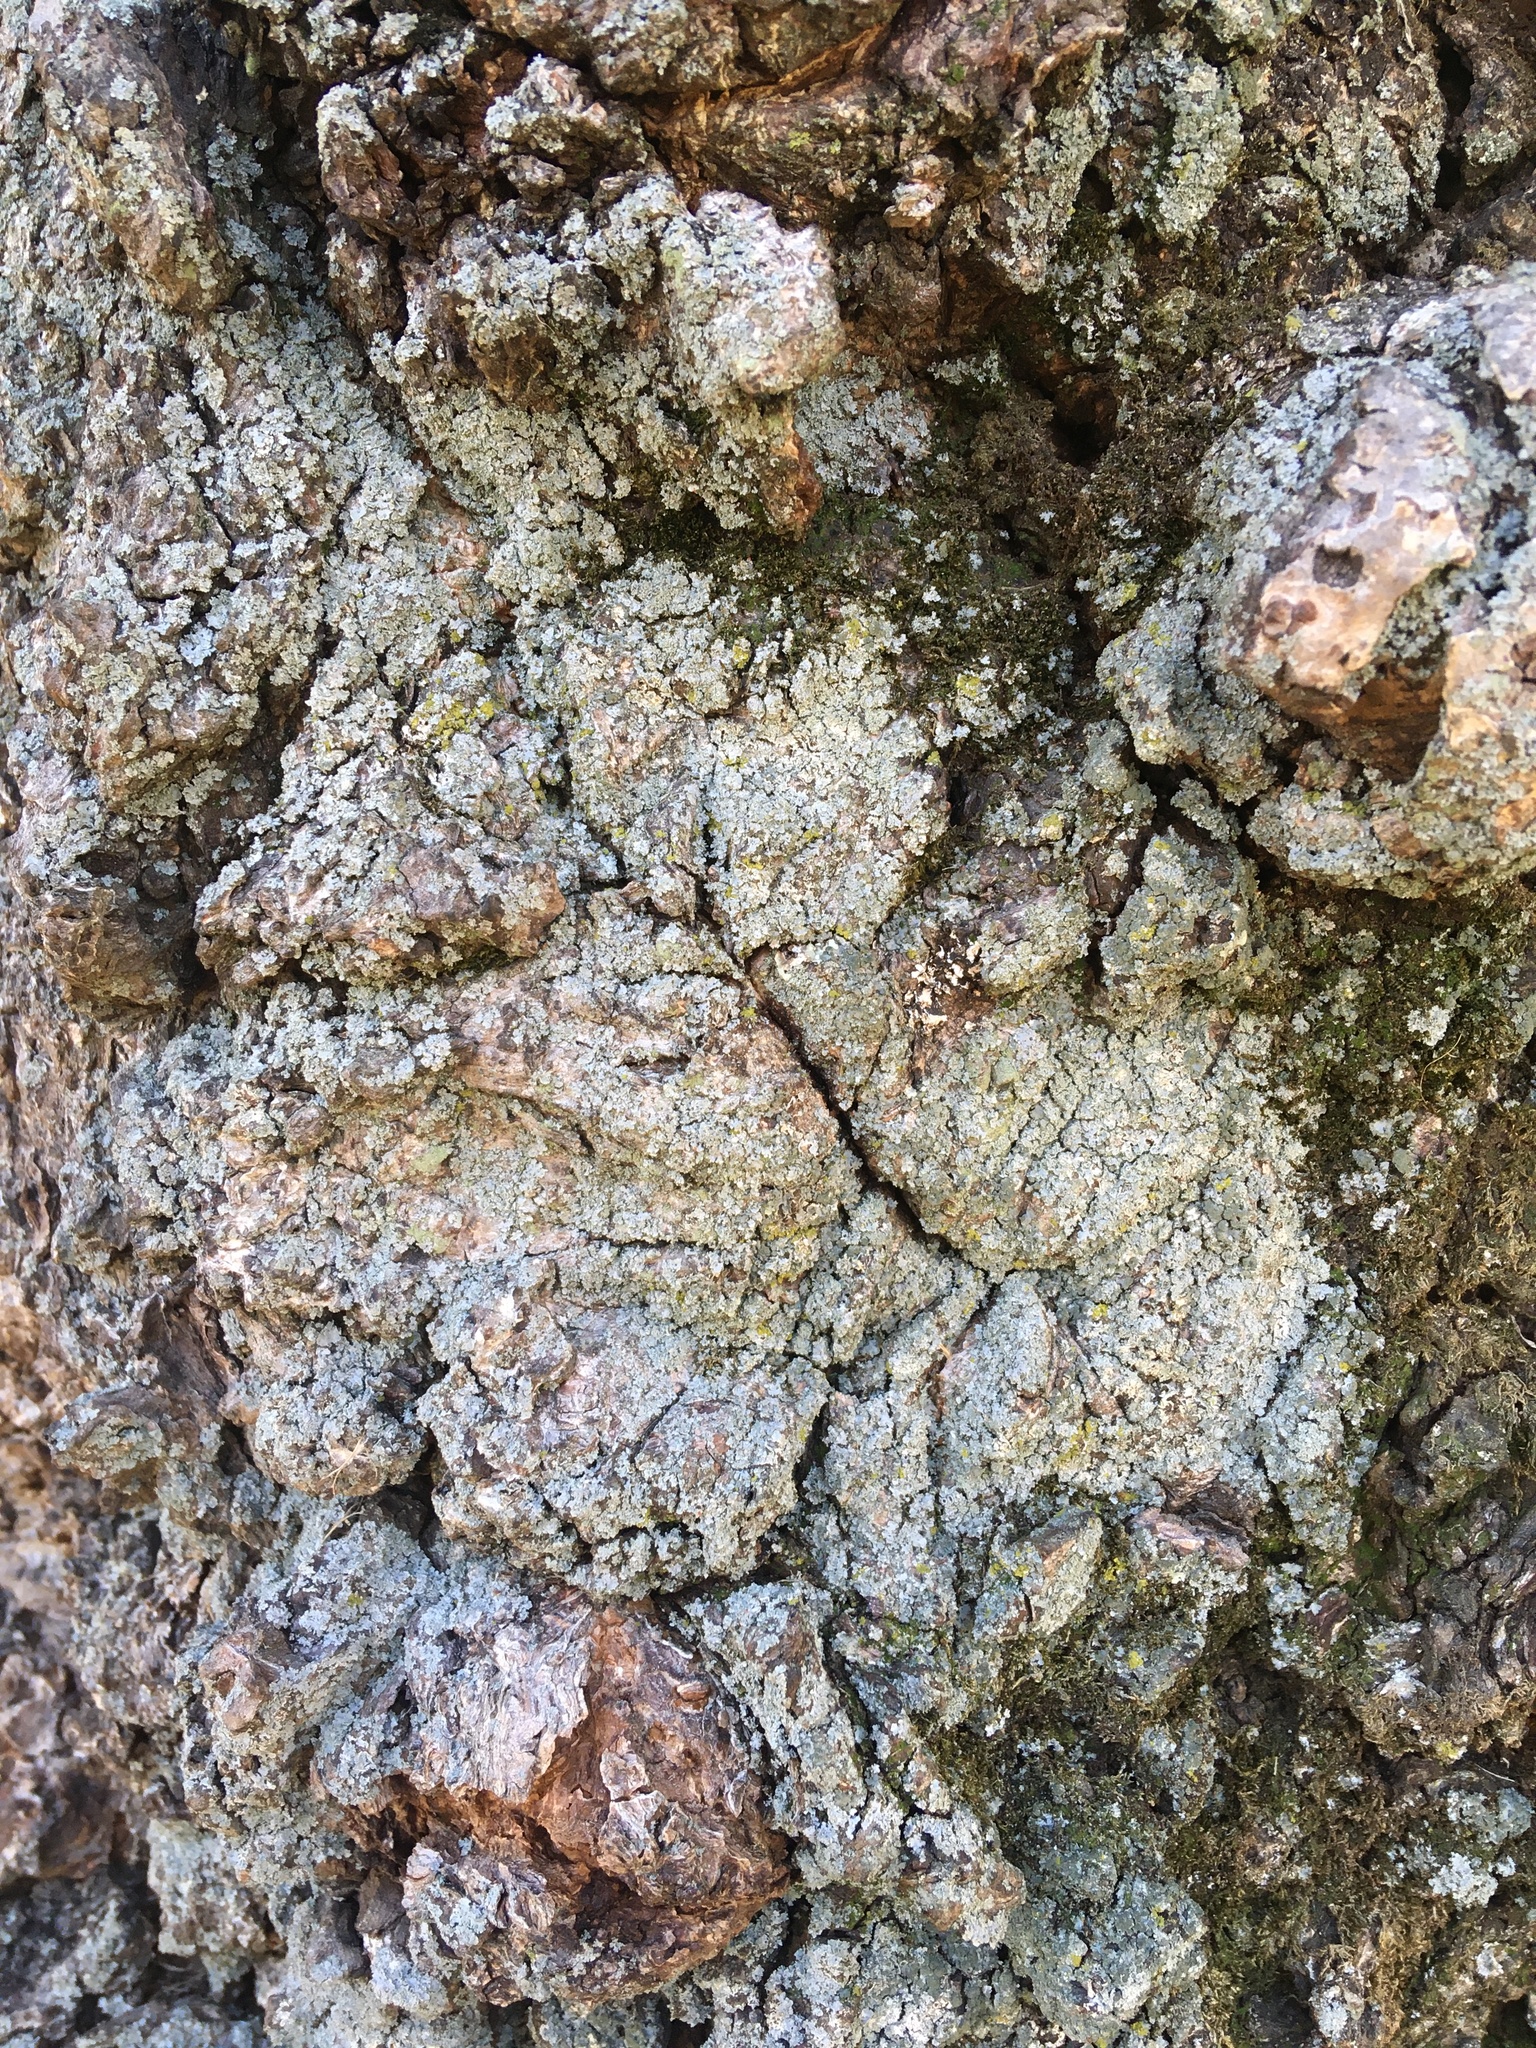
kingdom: Fungi
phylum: Ascomycota
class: Lecanoromycetes
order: Lecanorales
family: Stereocaulaceae
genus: Lepraria
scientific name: Lepraria lobificans
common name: Fluffy dust lichen
